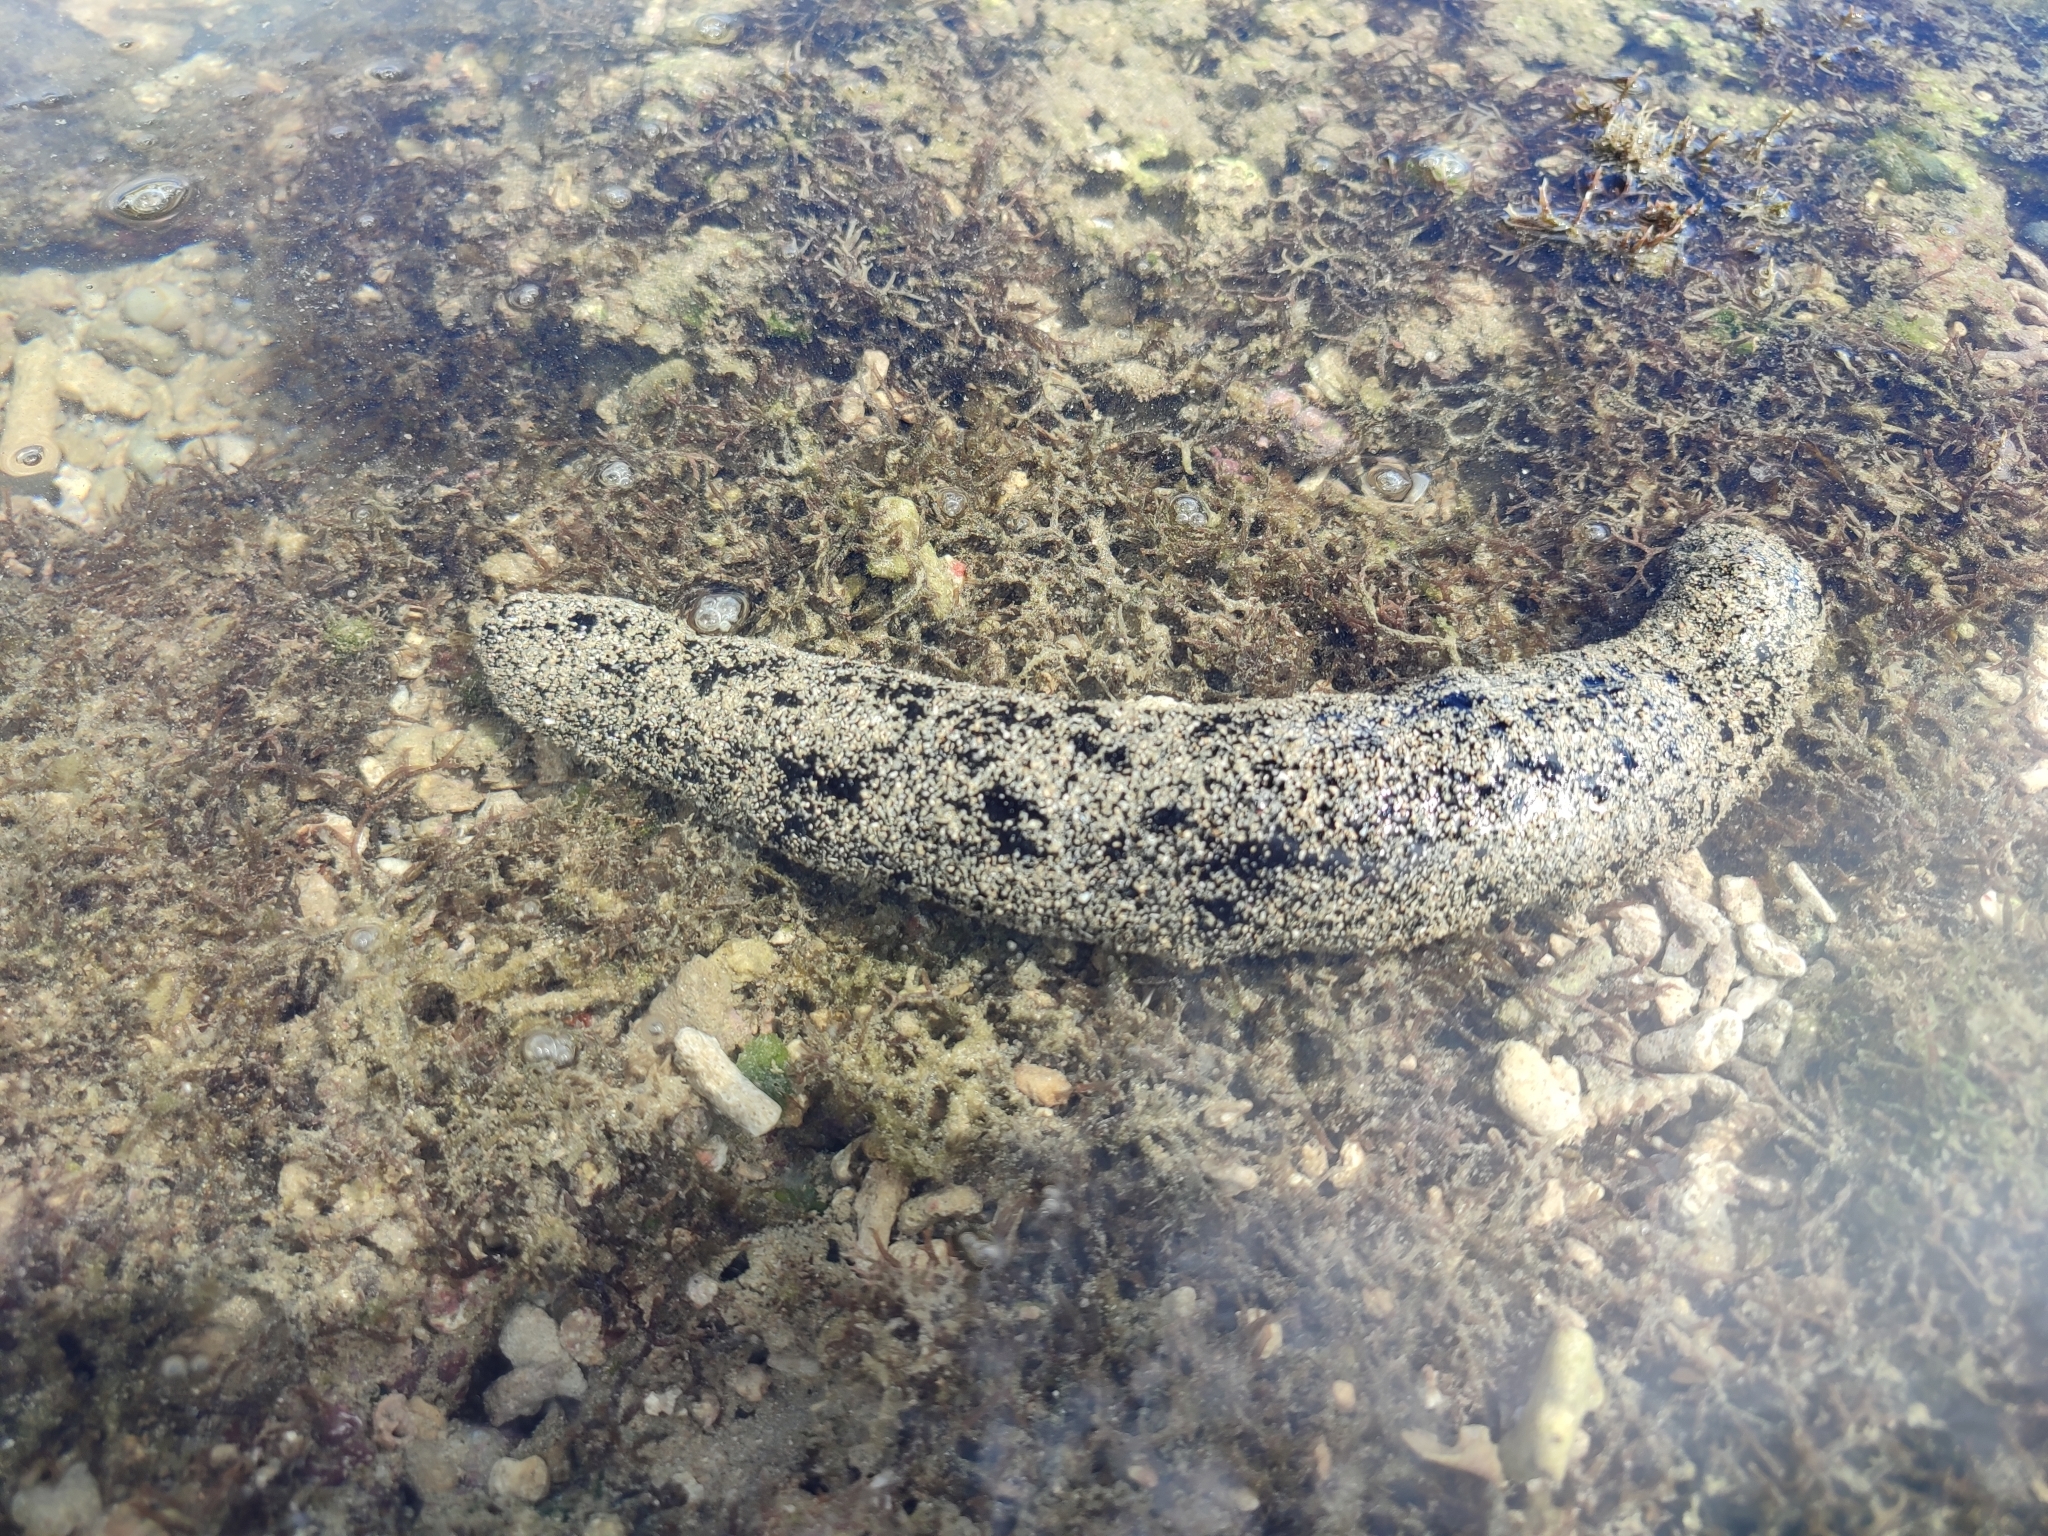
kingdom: Animalia
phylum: Echinodermata
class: Holothuroidea
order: Holothuriida
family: Holothuriidae
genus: Holothuria
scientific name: Holothuria atra
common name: Lollyfish
